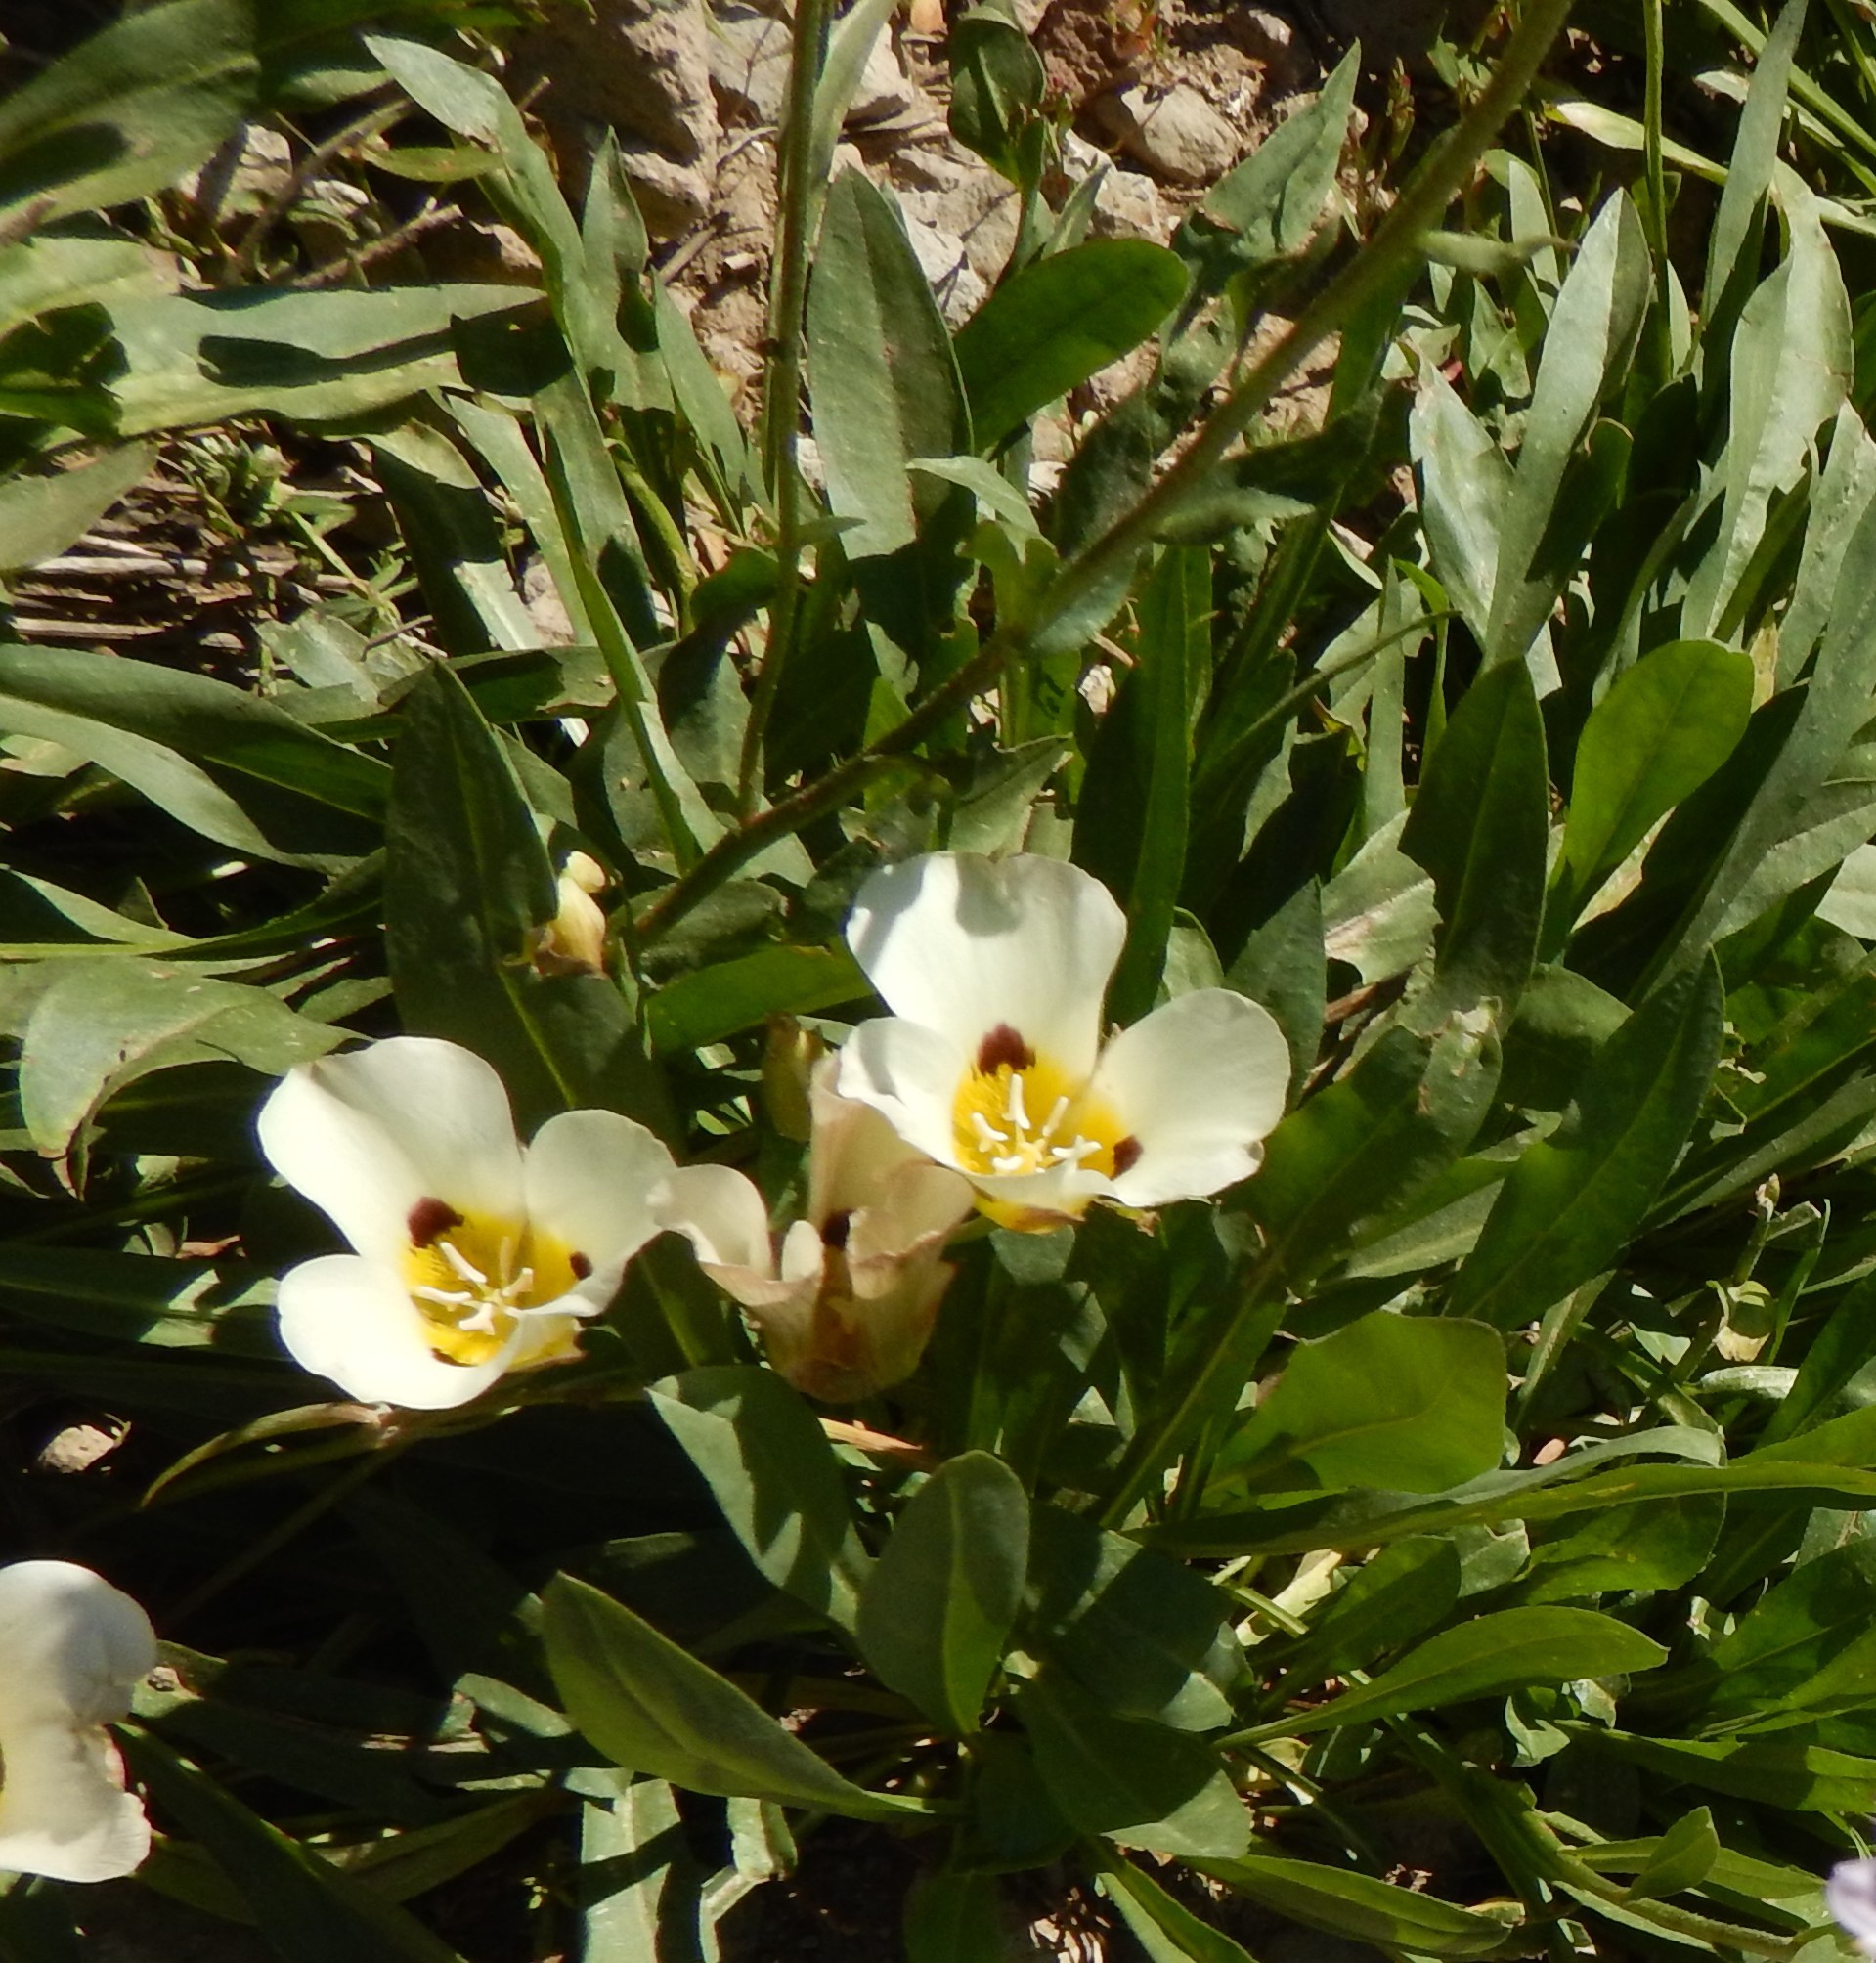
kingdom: Plantae
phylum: Tracheophyta
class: Liliopsida
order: Liliales
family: Liliaceae
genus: Calochortus
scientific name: Calochortus leichtlinii
